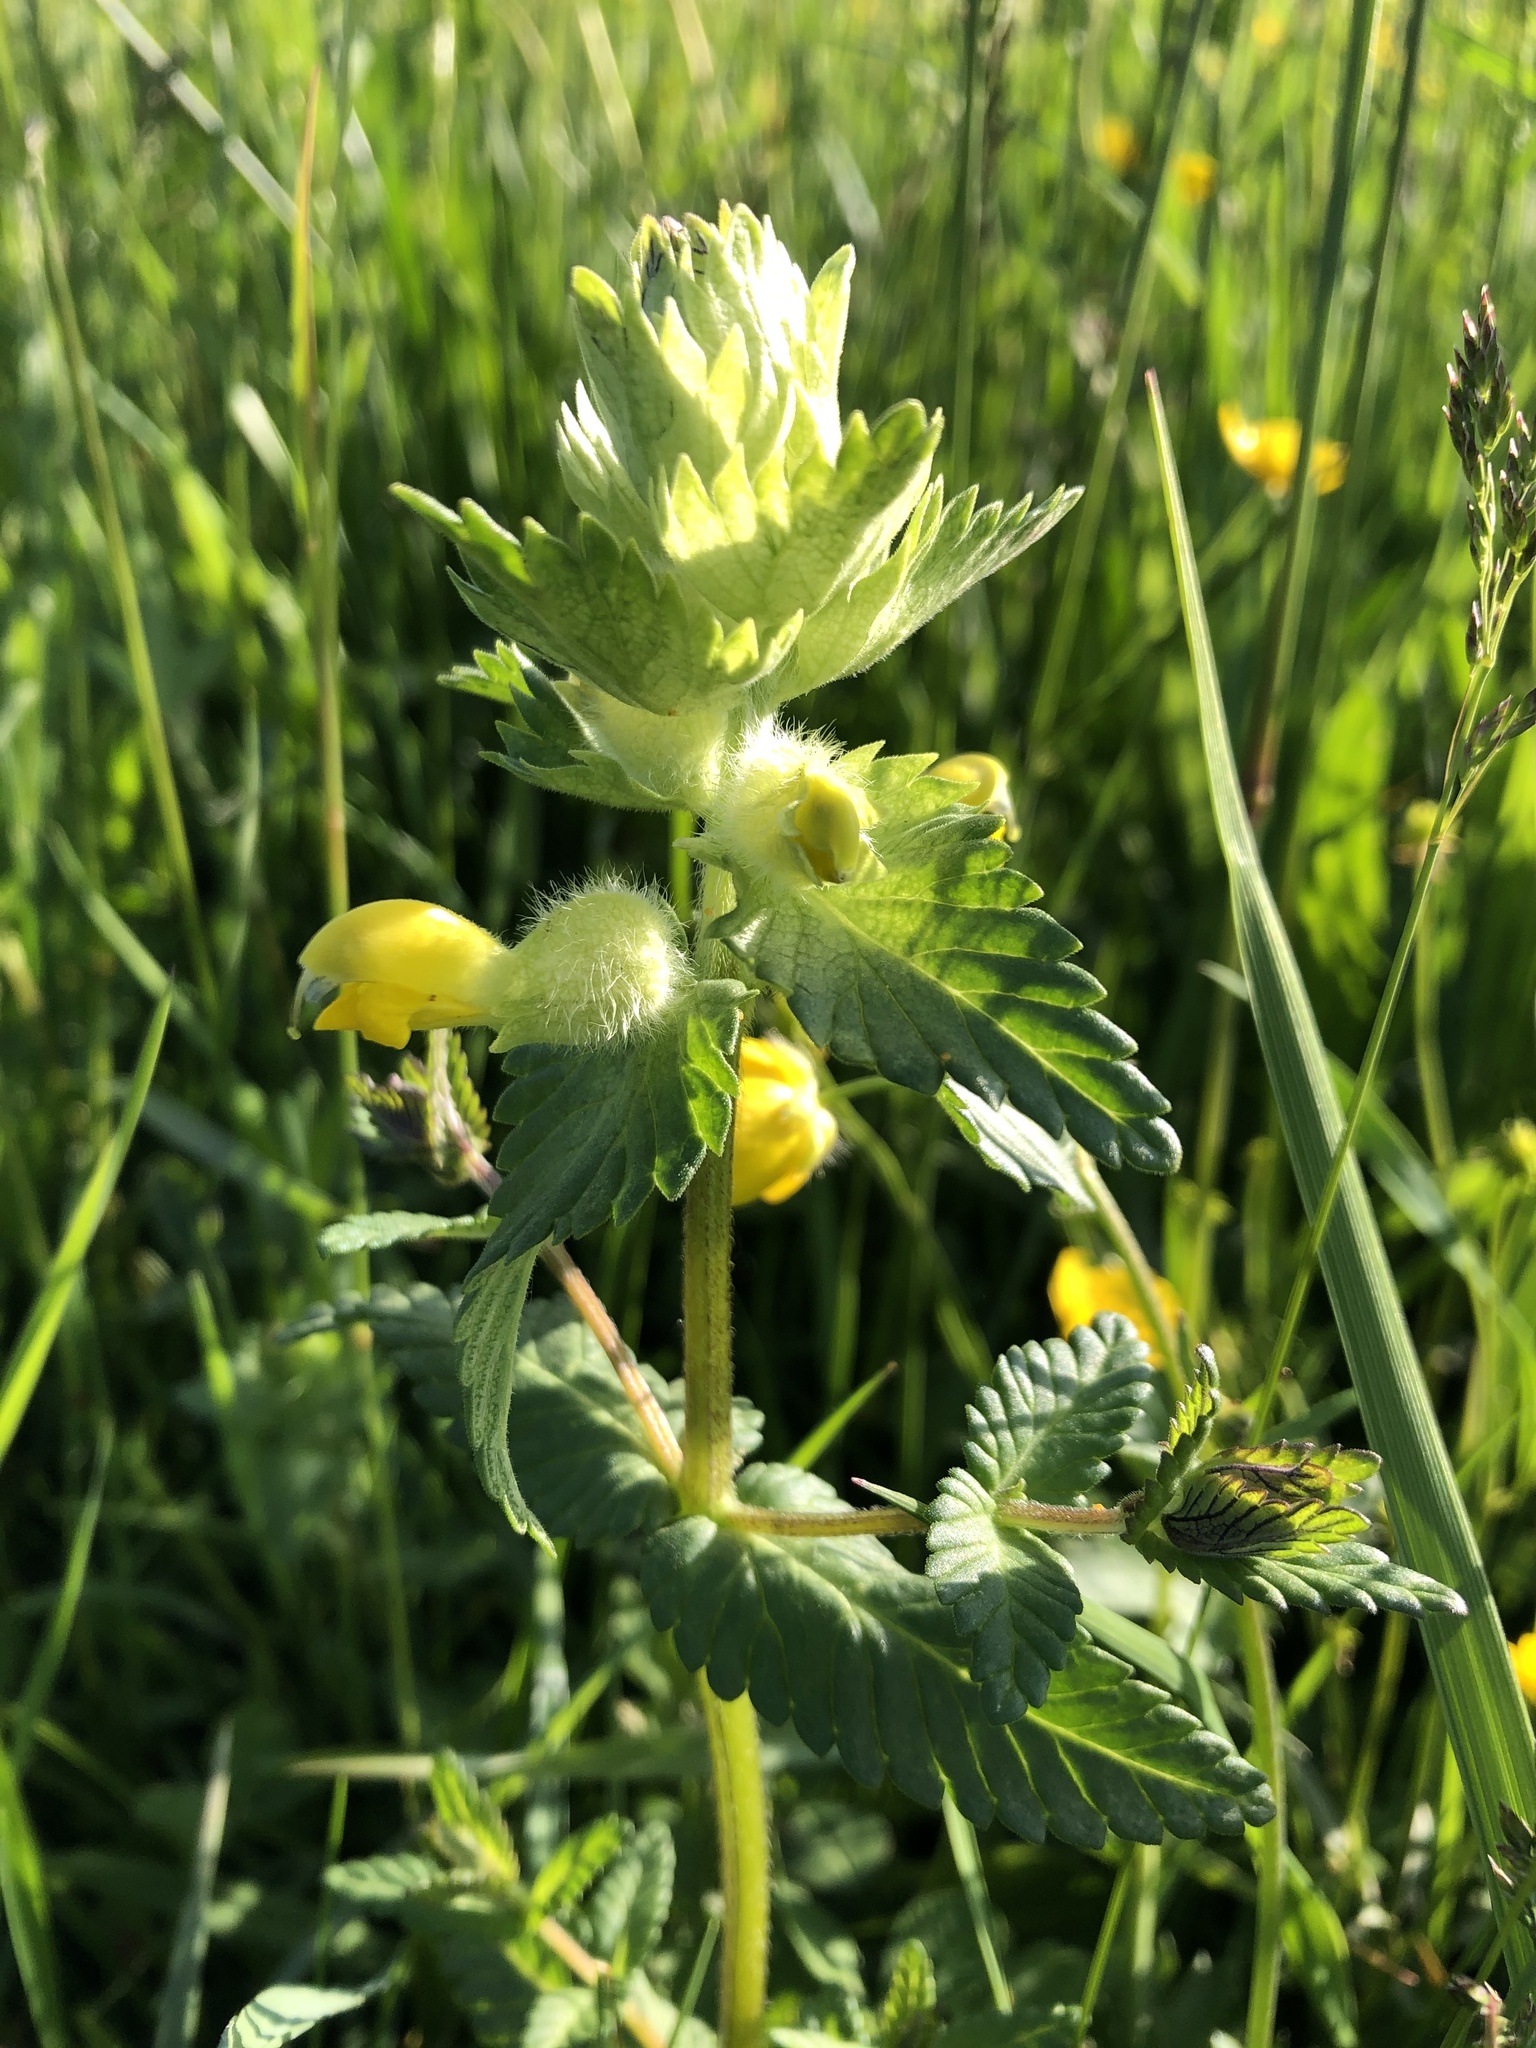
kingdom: Plantae
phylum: Tracheophyta
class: Magnoliopsida
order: Lamiales
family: Orobanchaceae
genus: Rhinanthus
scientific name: Rhinanthus alectorolophus
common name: Greater yellow-rattle
